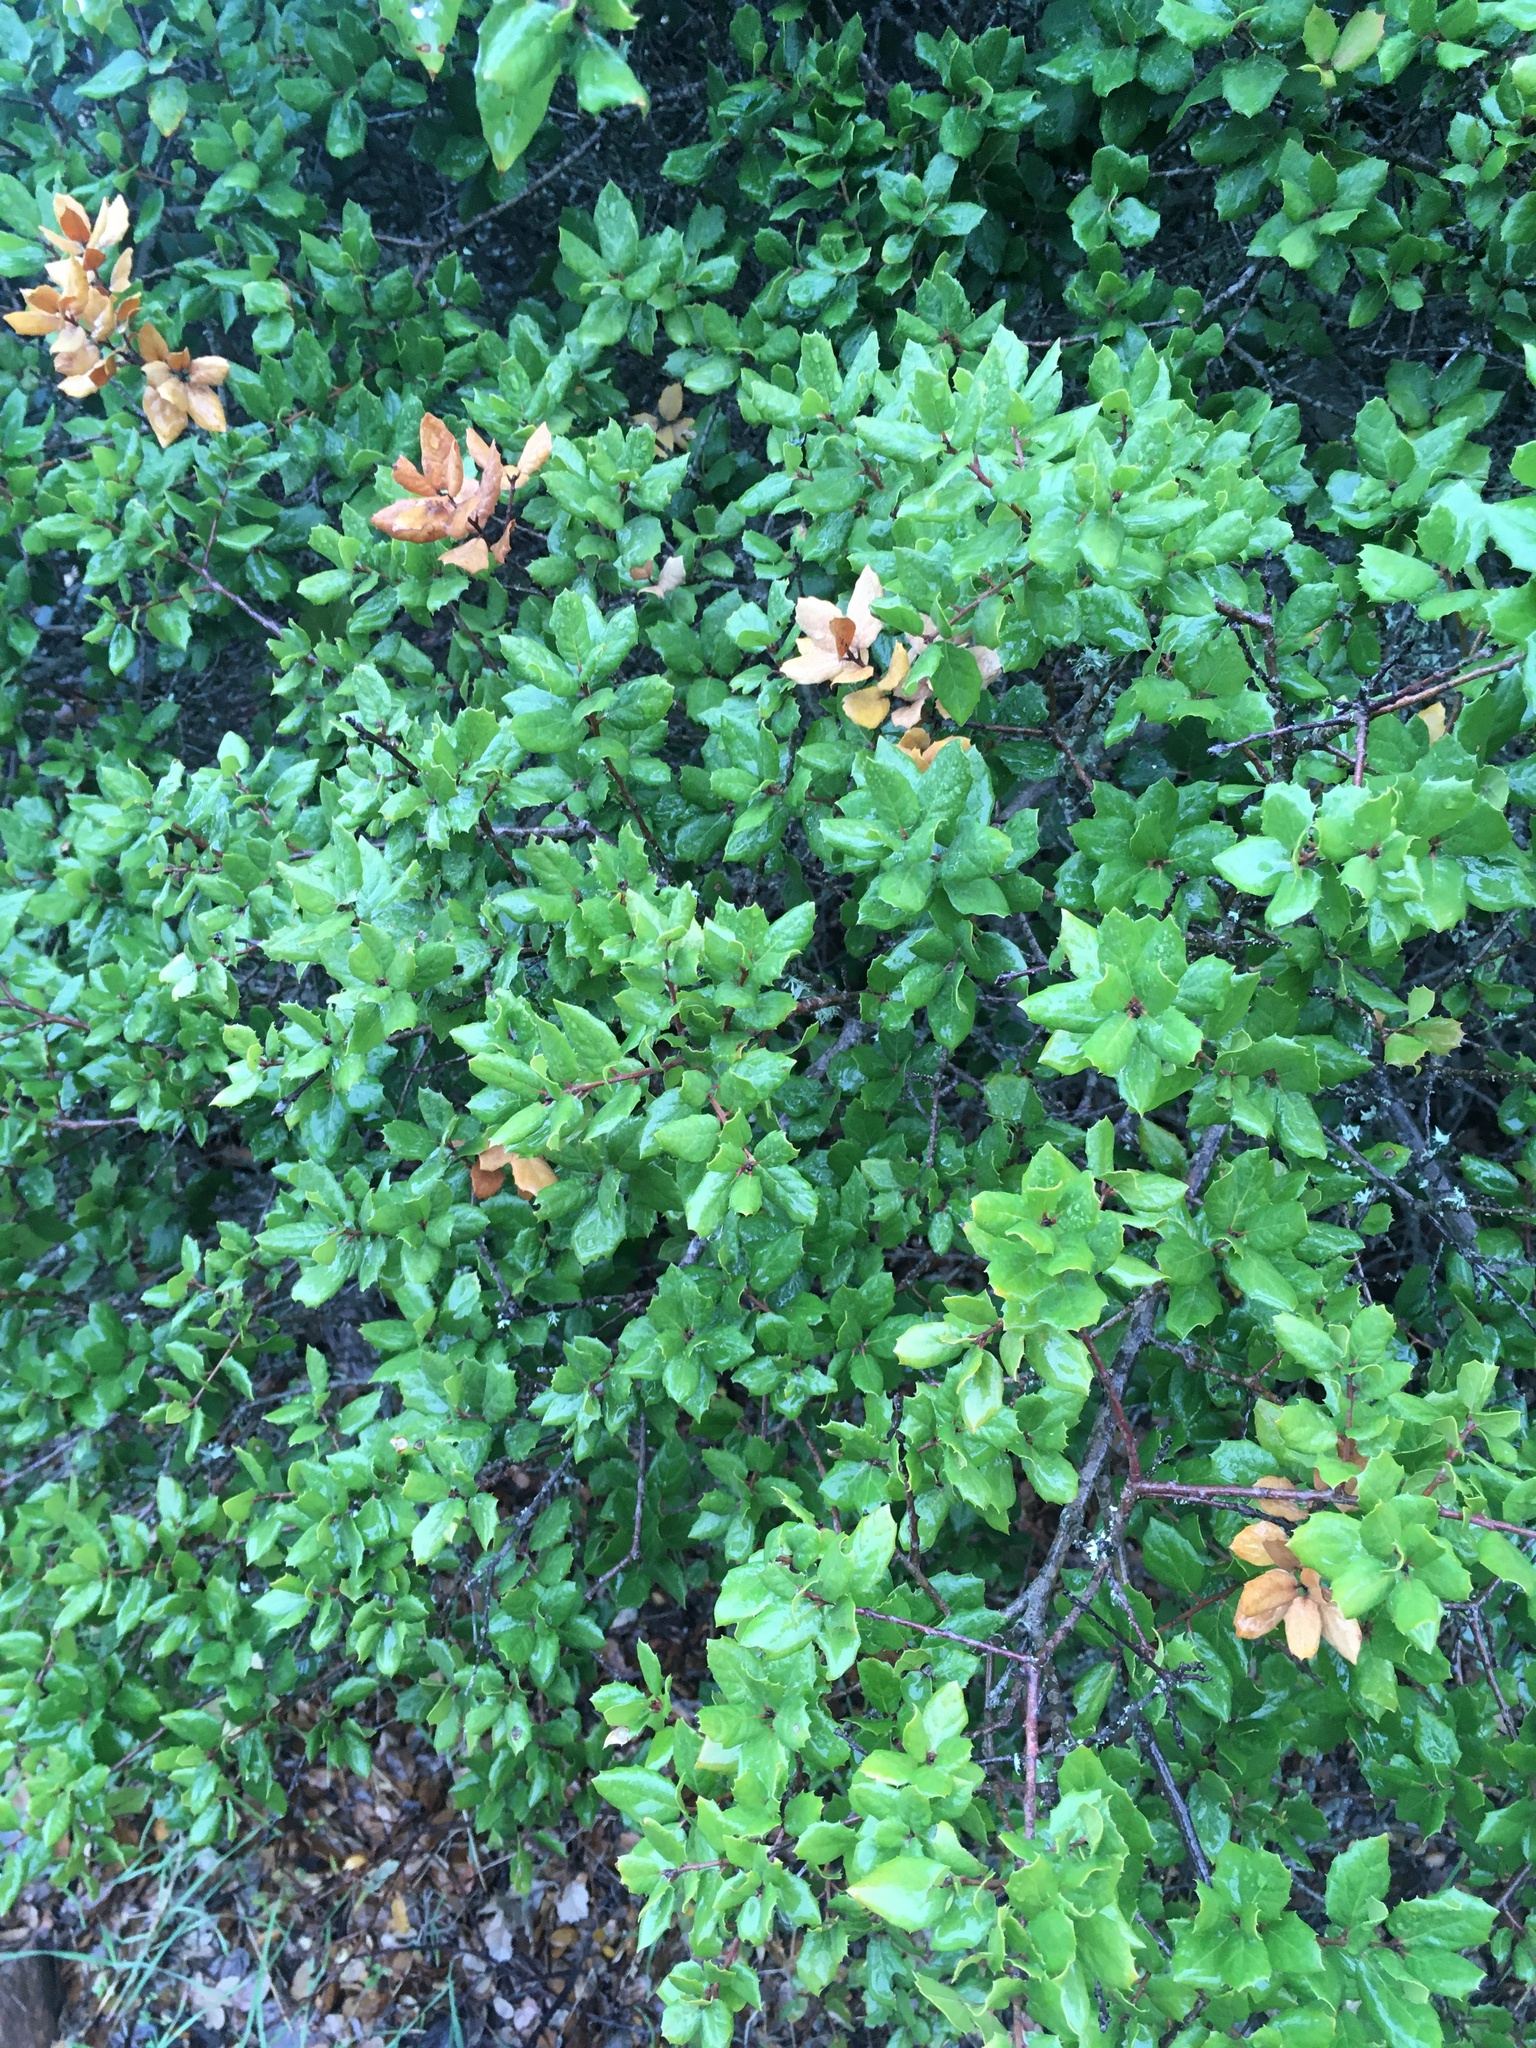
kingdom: Plantae
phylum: Tracheophyta
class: Magnoliopsida
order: Fagales
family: Fagaceae
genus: Quercus
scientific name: Quercus agrifolia
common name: California live oak
